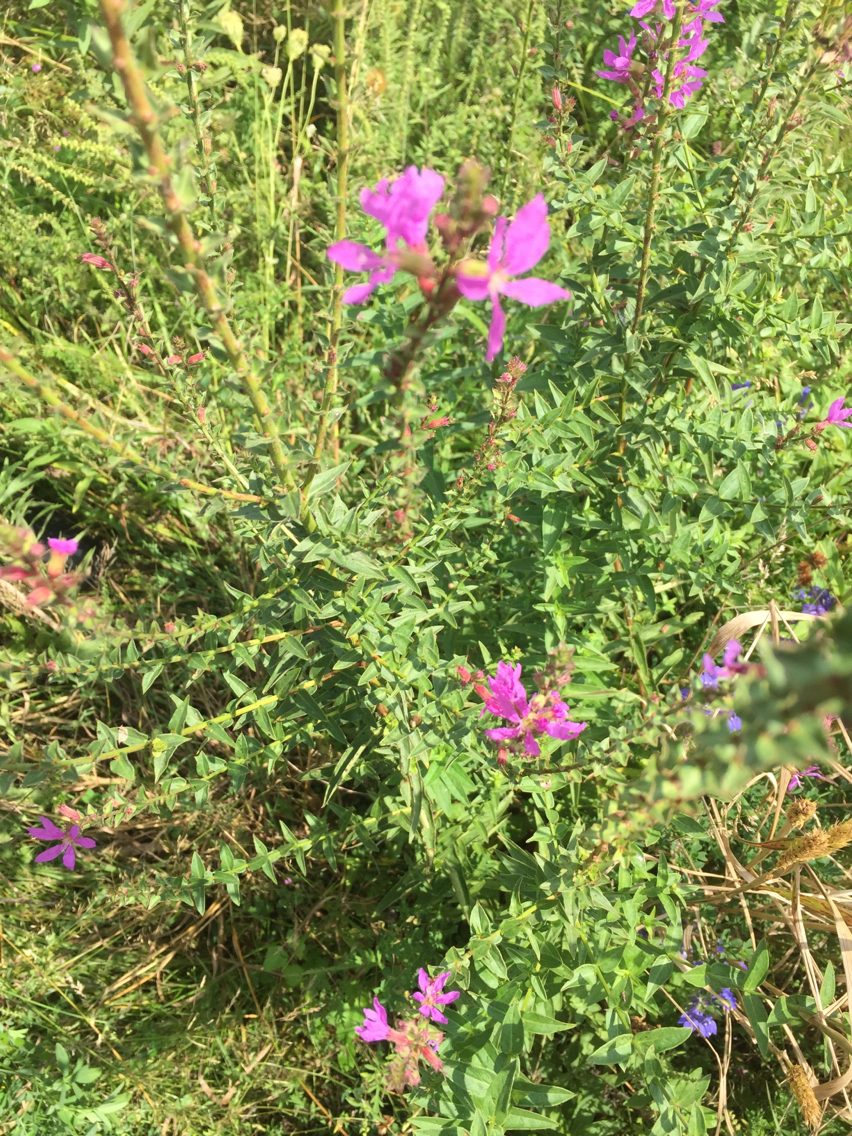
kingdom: Plantae
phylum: Tracheophyta
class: Magnoliopsida
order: Myrtales
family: Lythraceae
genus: Lythrum
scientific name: Lythrum salicaria
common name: Purple loosestrife
